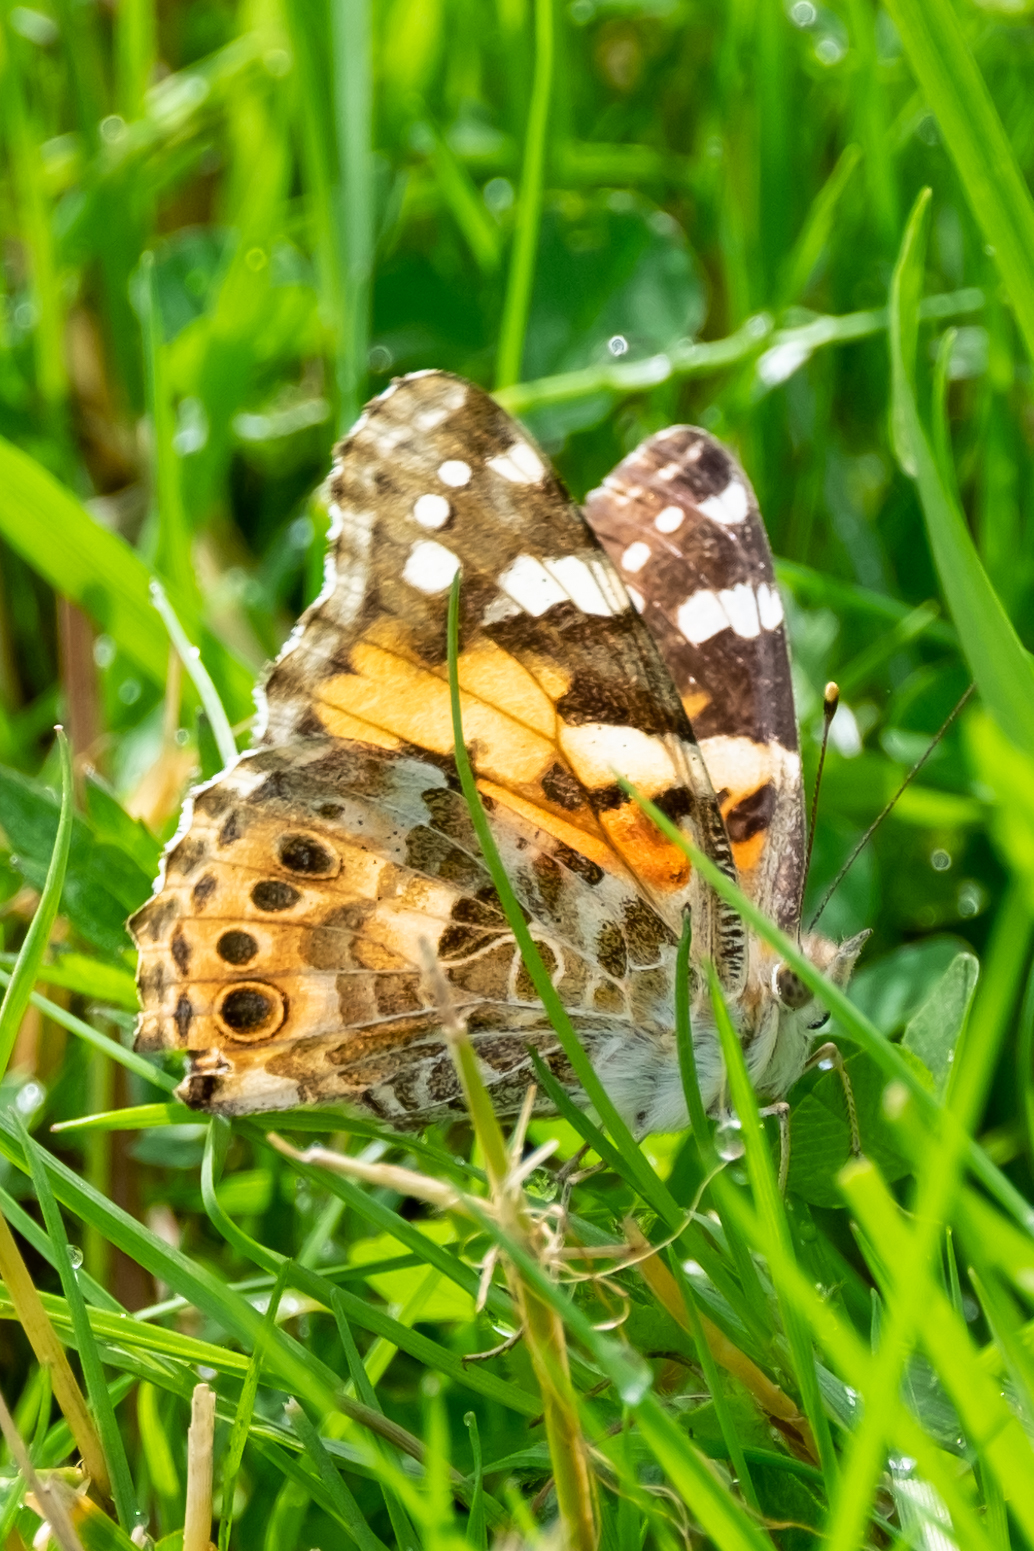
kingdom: Animalia
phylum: Arthropoda
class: Insecta
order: Lepidoptera
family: Nymphalidae
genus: Vanessa
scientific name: Vanessa cardui
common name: Painted lady
